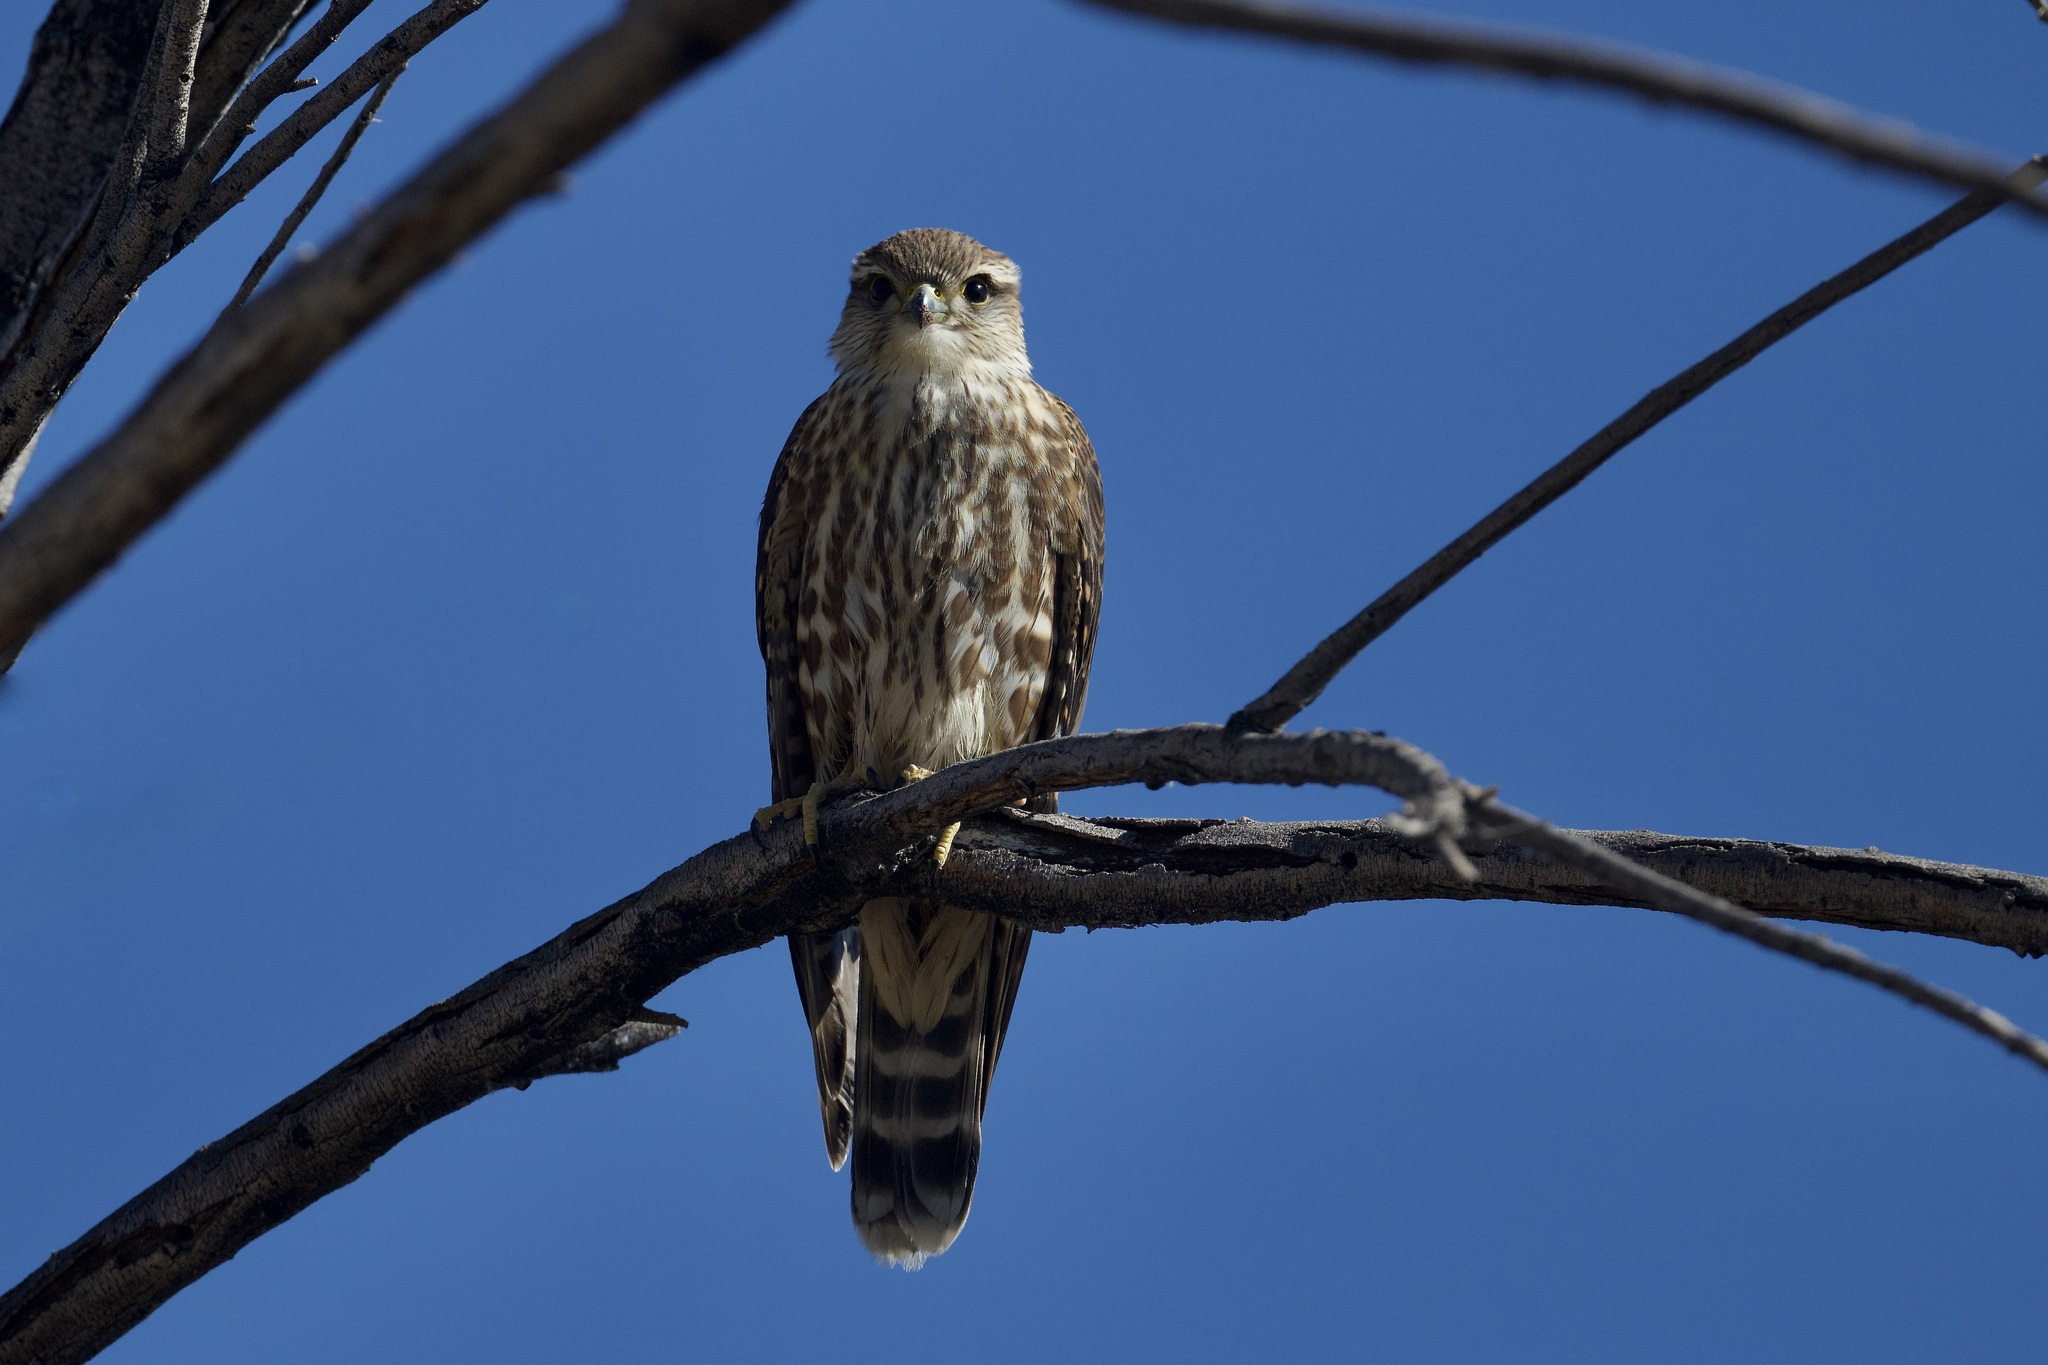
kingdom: Animalia
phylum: Chordata
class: Aves
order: Falconiformes
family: Falconidae
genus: Falco
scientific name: Falco columbarius
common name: Merlin
